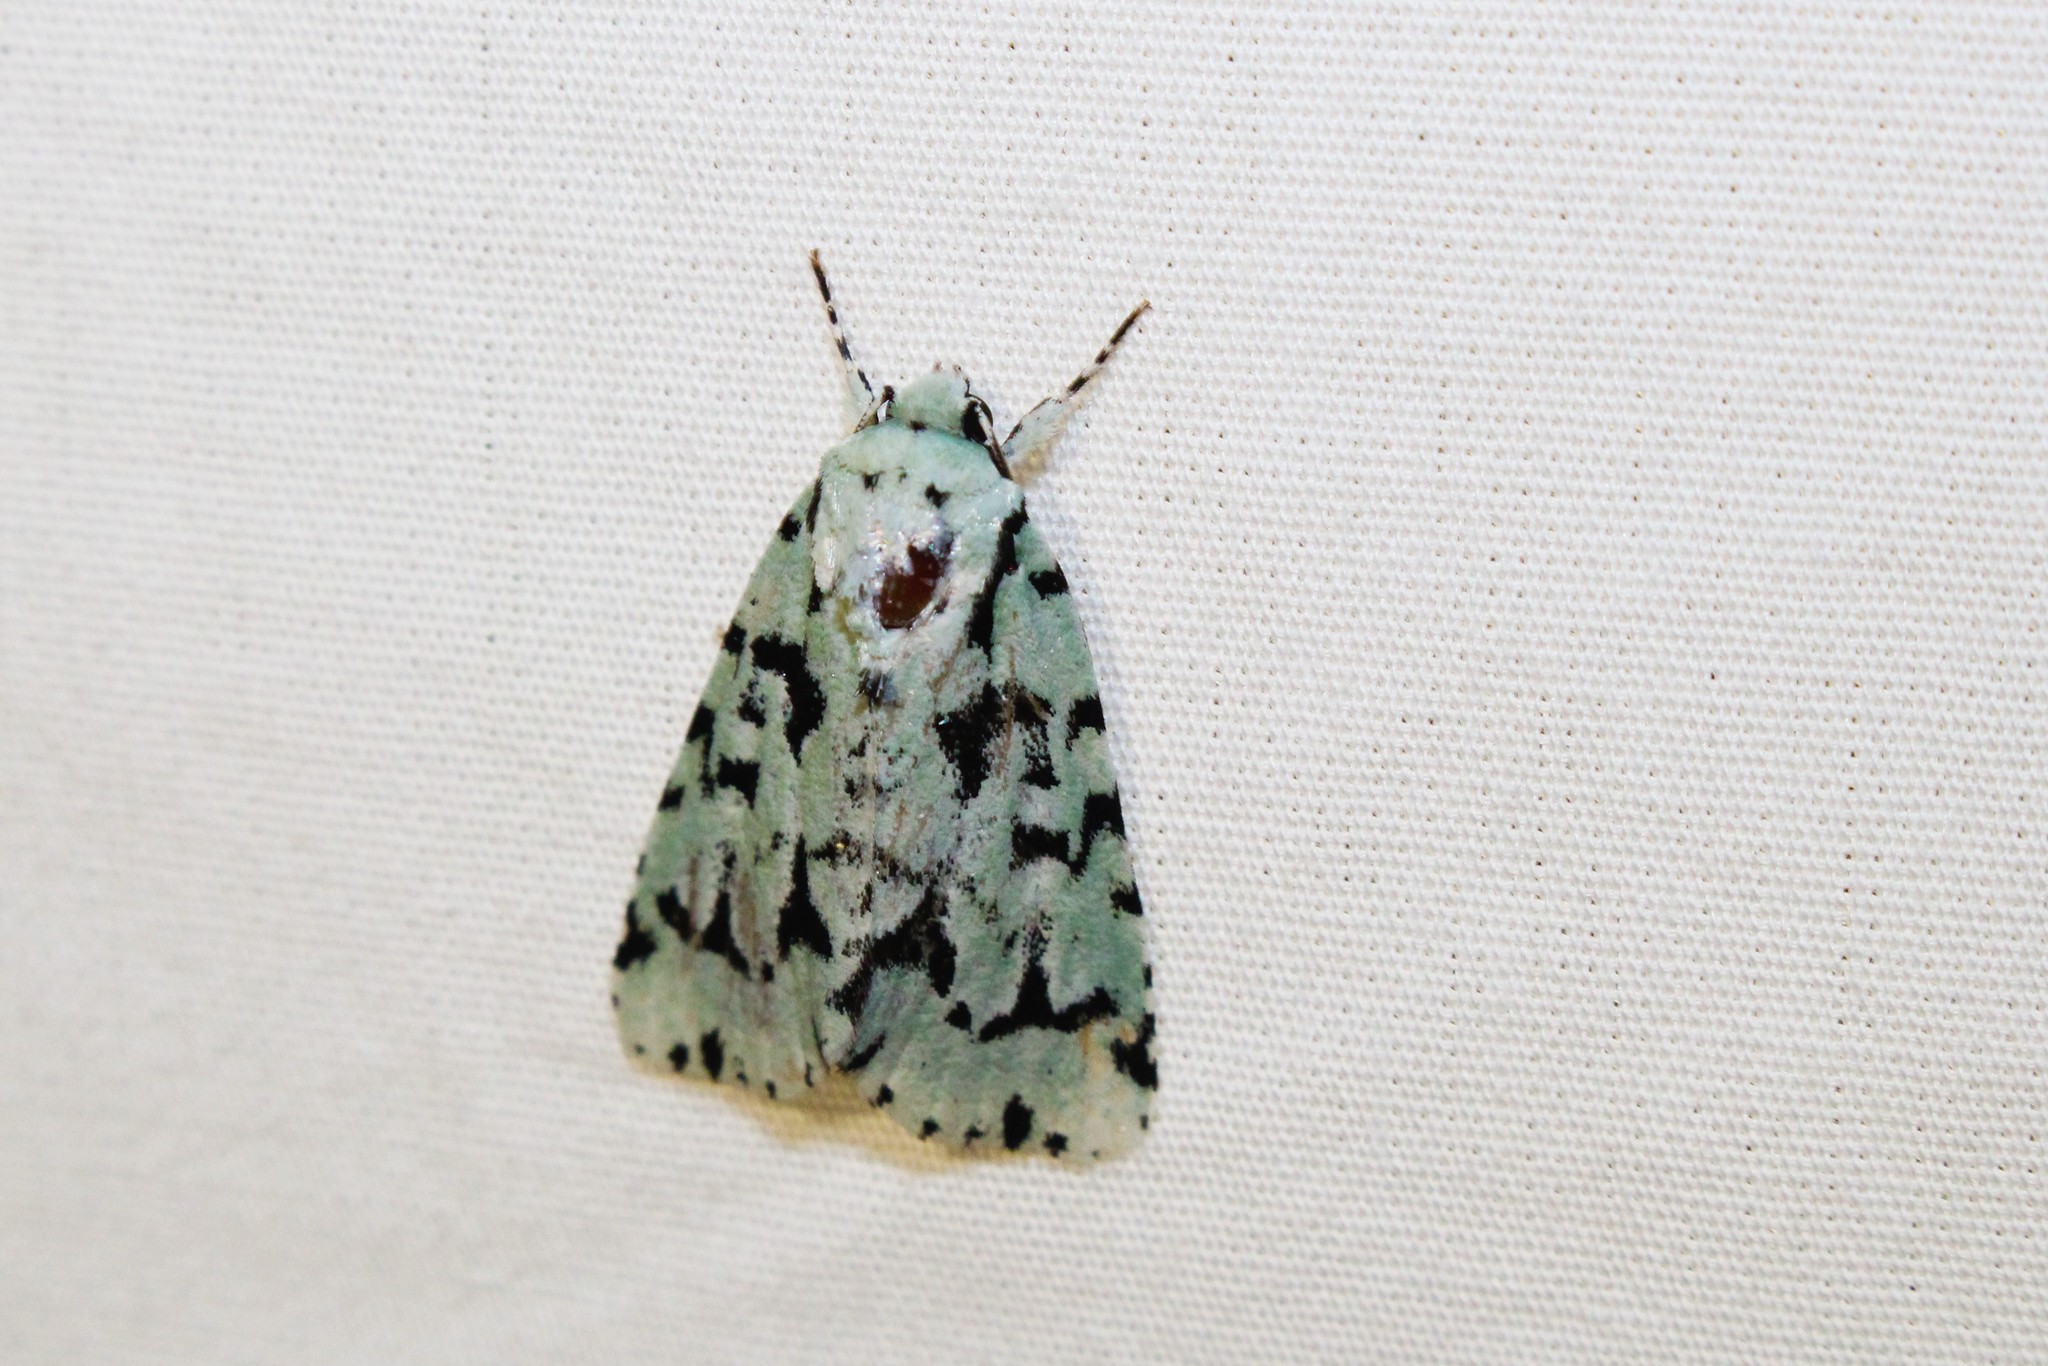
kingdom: Animalia
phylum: Arthropoda
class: Insecta
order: Lepidoptera
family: Noctuidae
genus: Acronicta
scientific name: Acronicta fallax
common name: Green marvel
